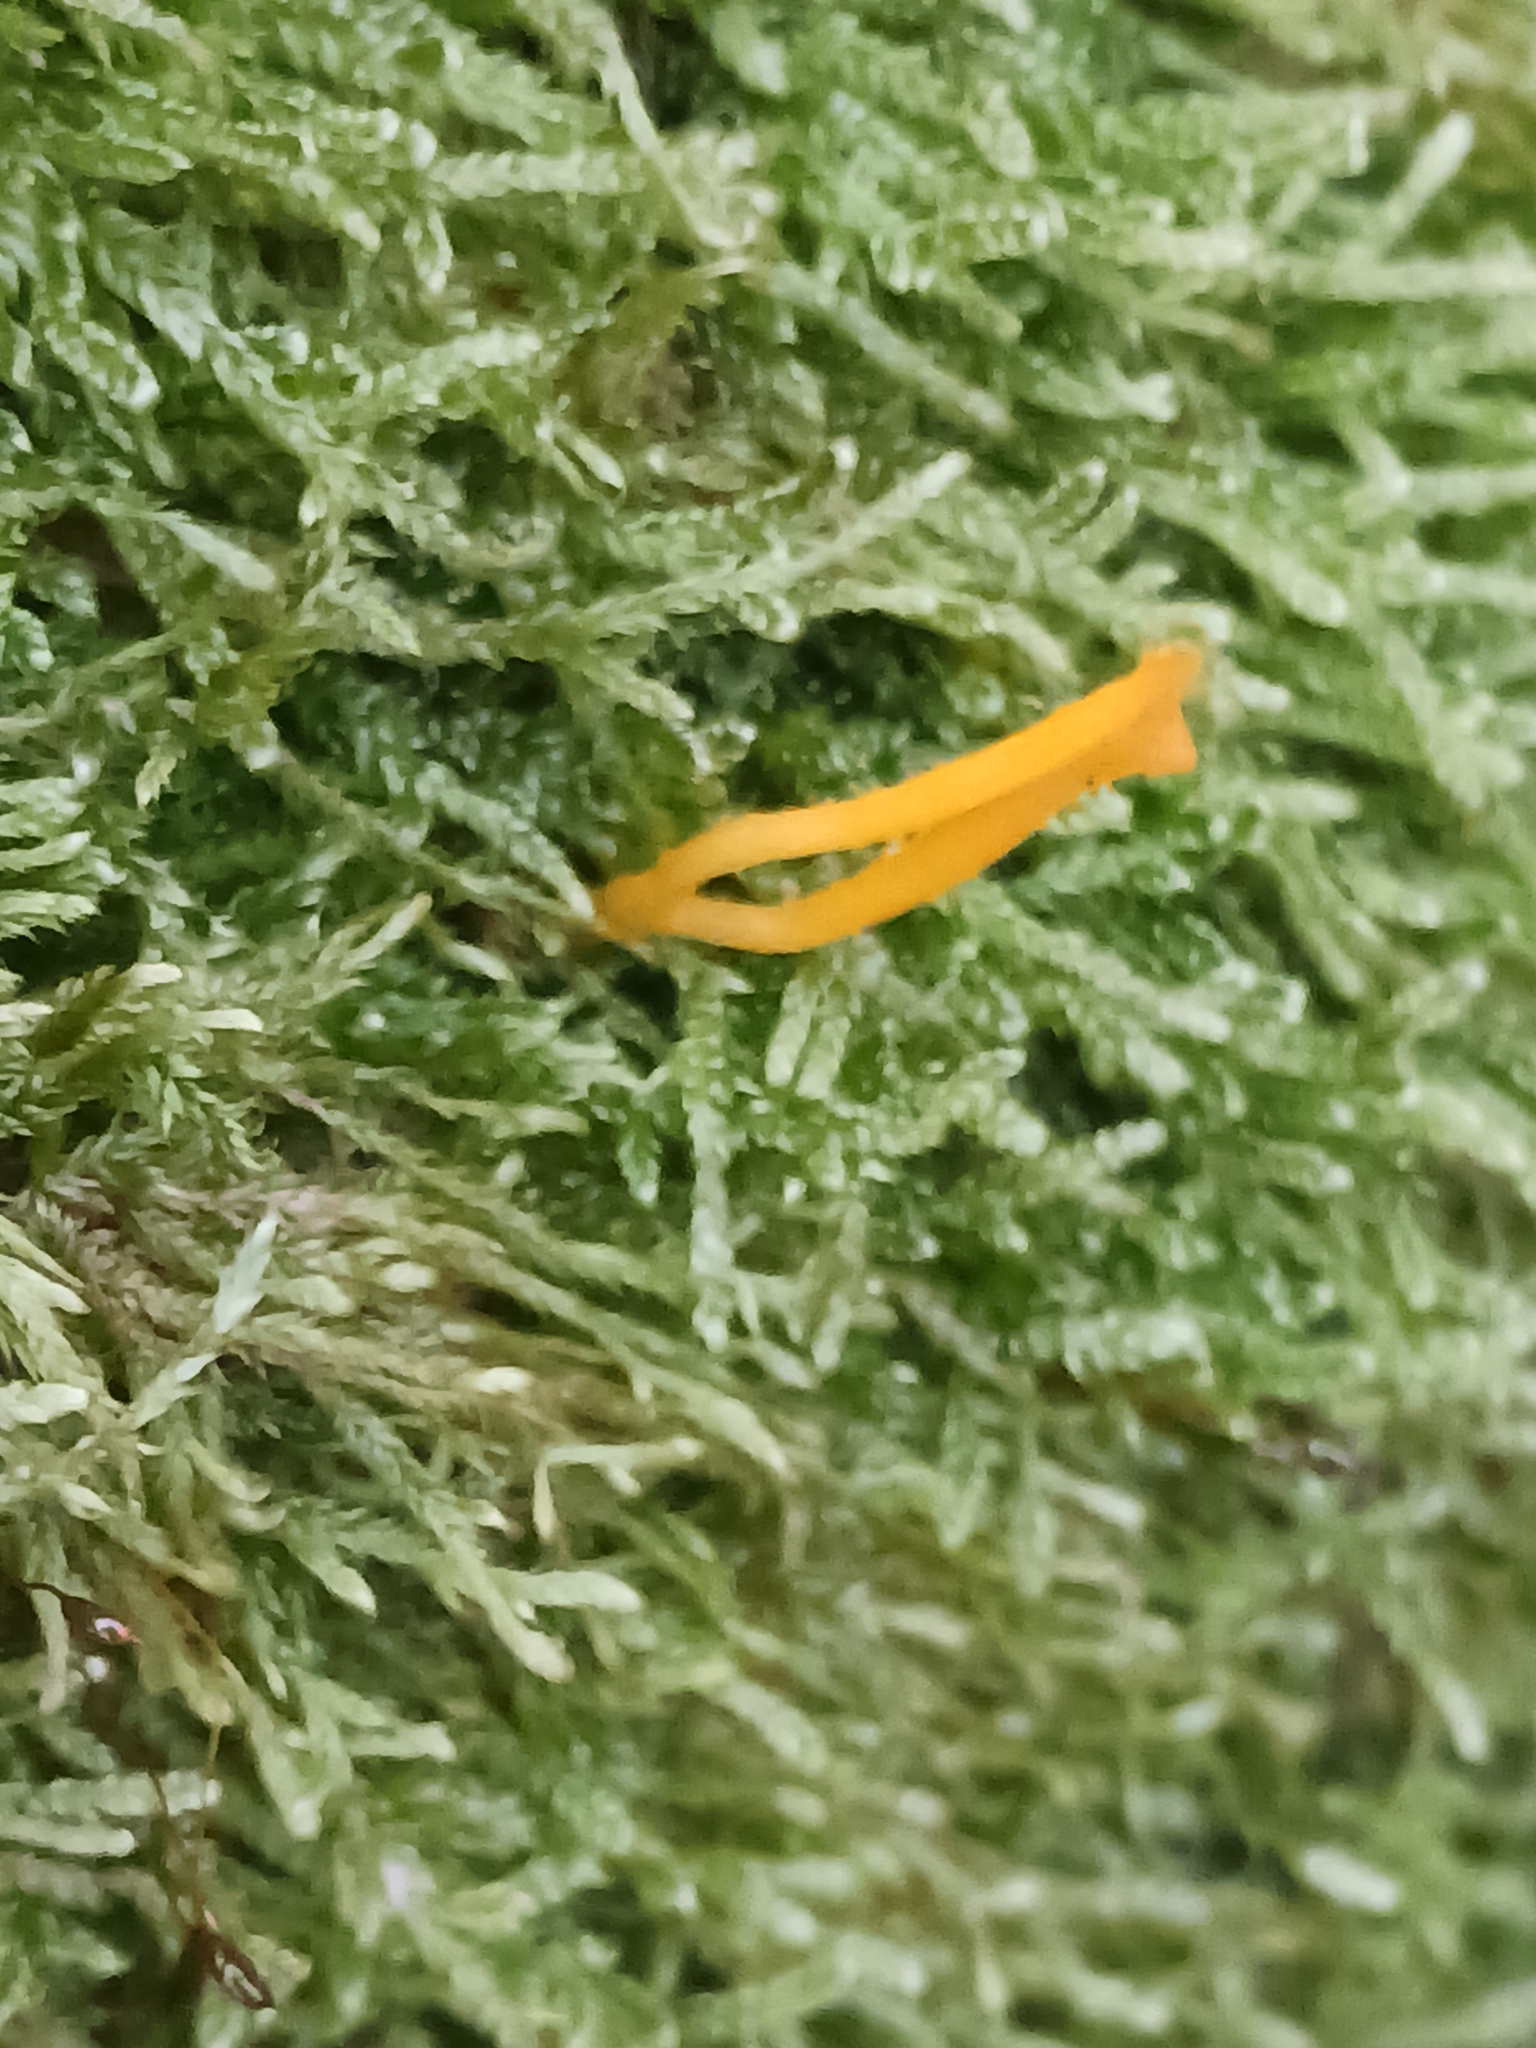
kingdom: Fungi
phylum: Basidiomycota
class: Dacrymycetes
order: Dacrymycetales
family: Dacrymycetaceae
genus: Calocera
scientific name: Calocera viscosa
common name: Yellow stagshorn
